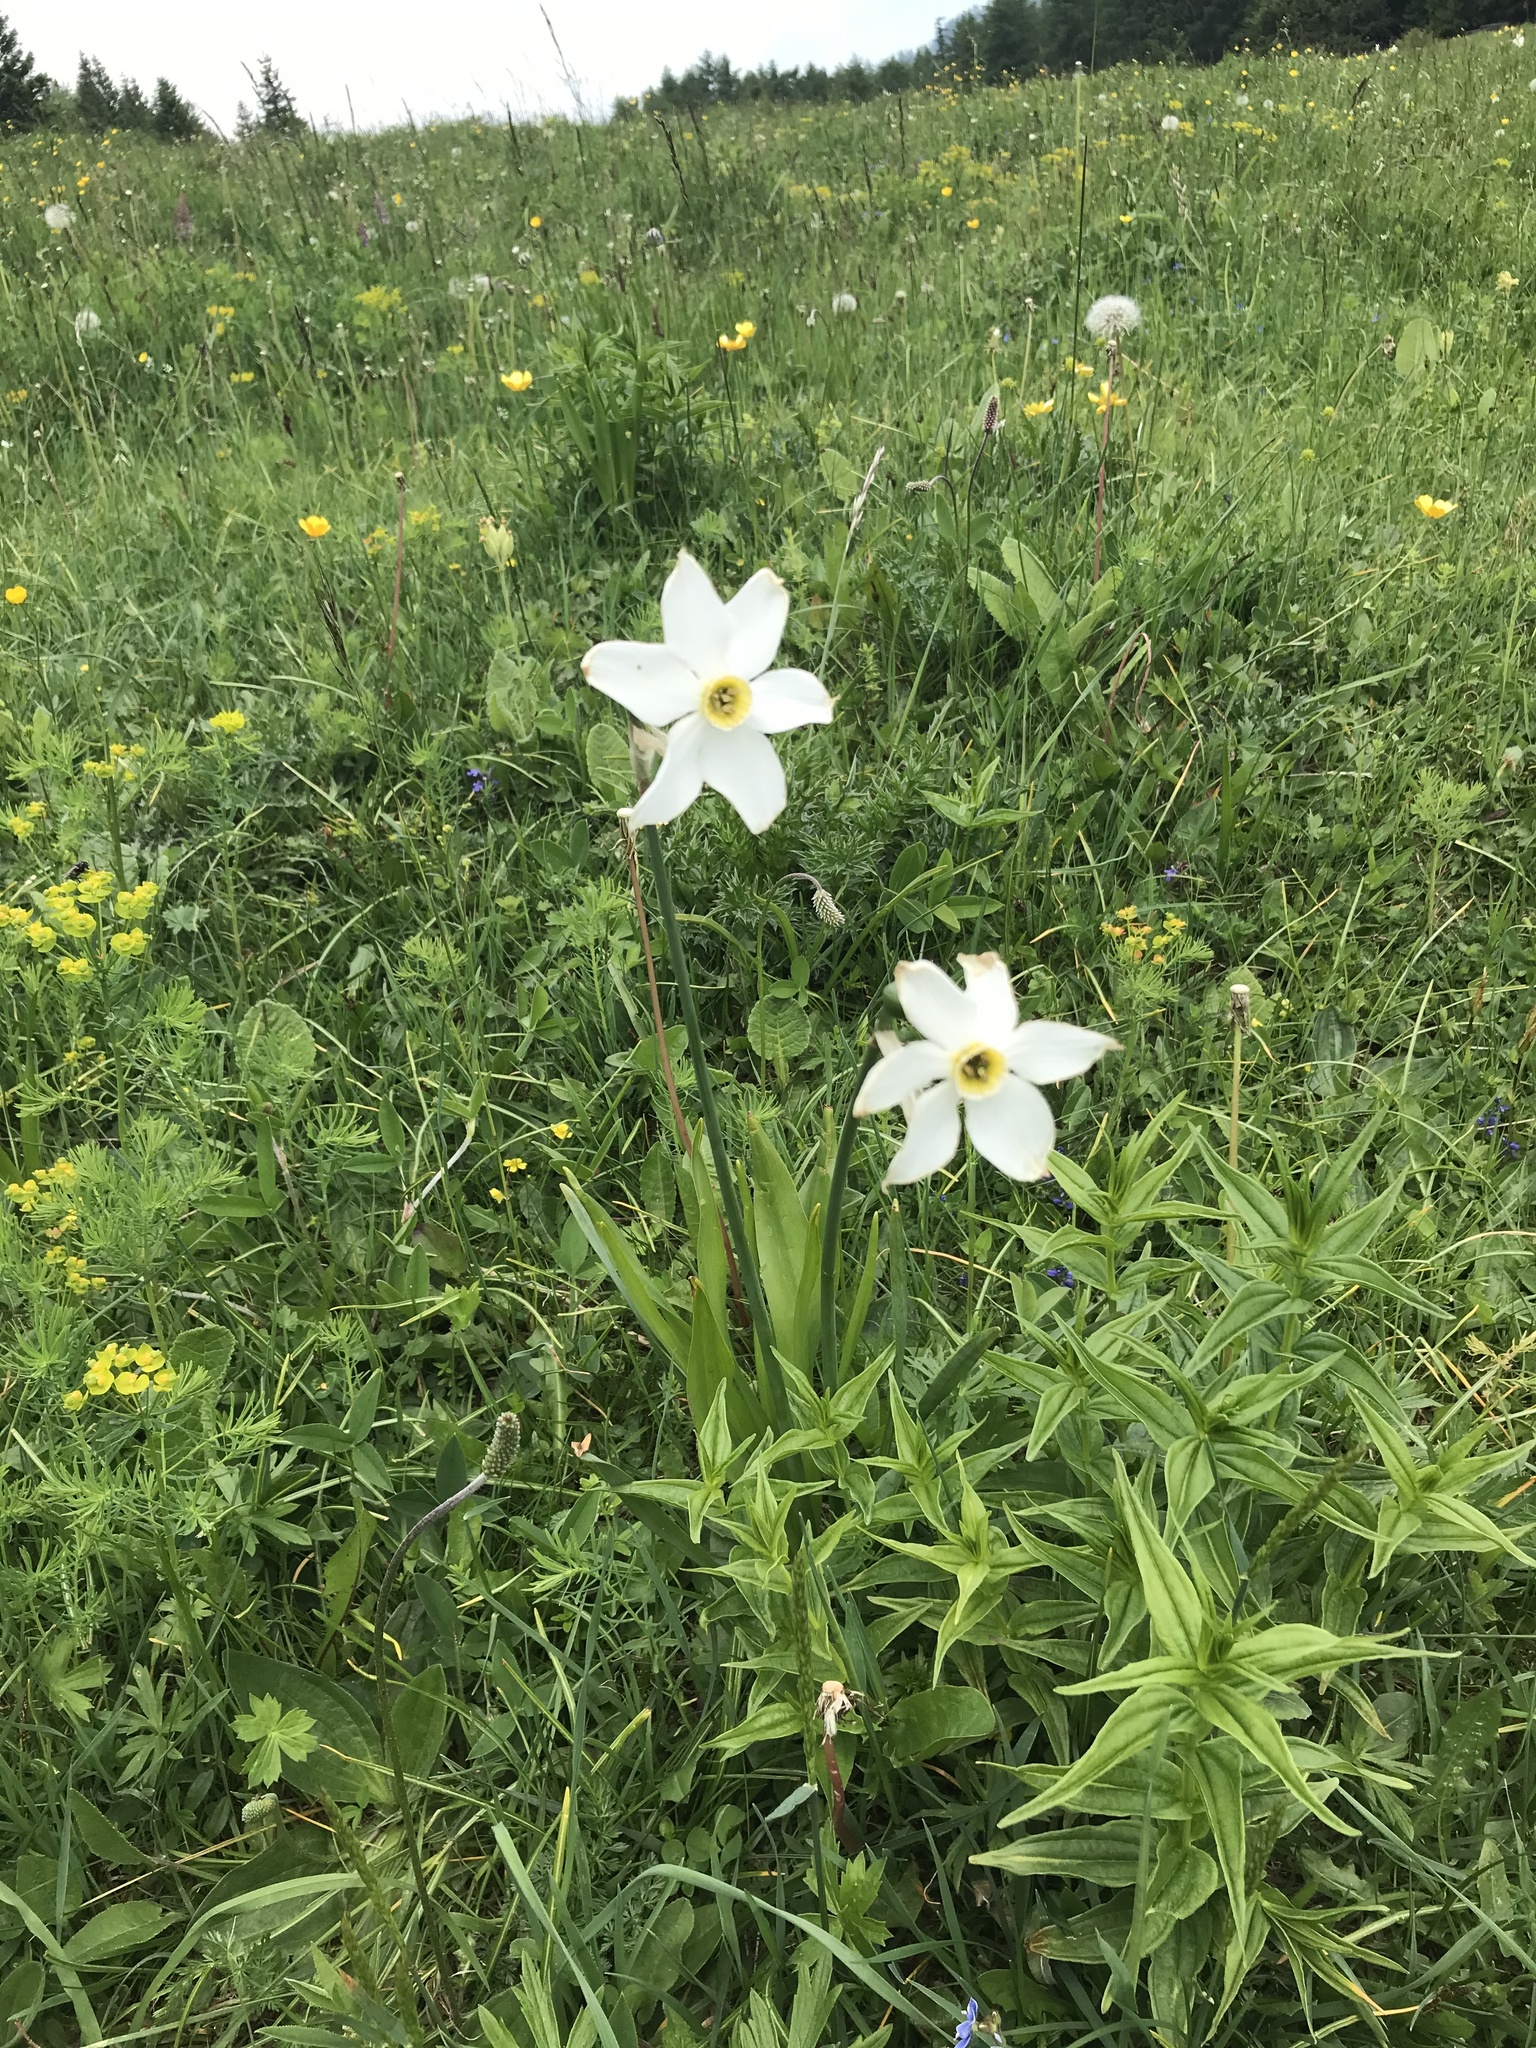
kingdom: Plantae
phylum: Tracheophyta
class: Liliopsida
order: Asparagales
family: Amaryllidaceae
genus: Narcissus
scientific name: Narcissus poeticus
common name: Pheasant's-eye daffodil
